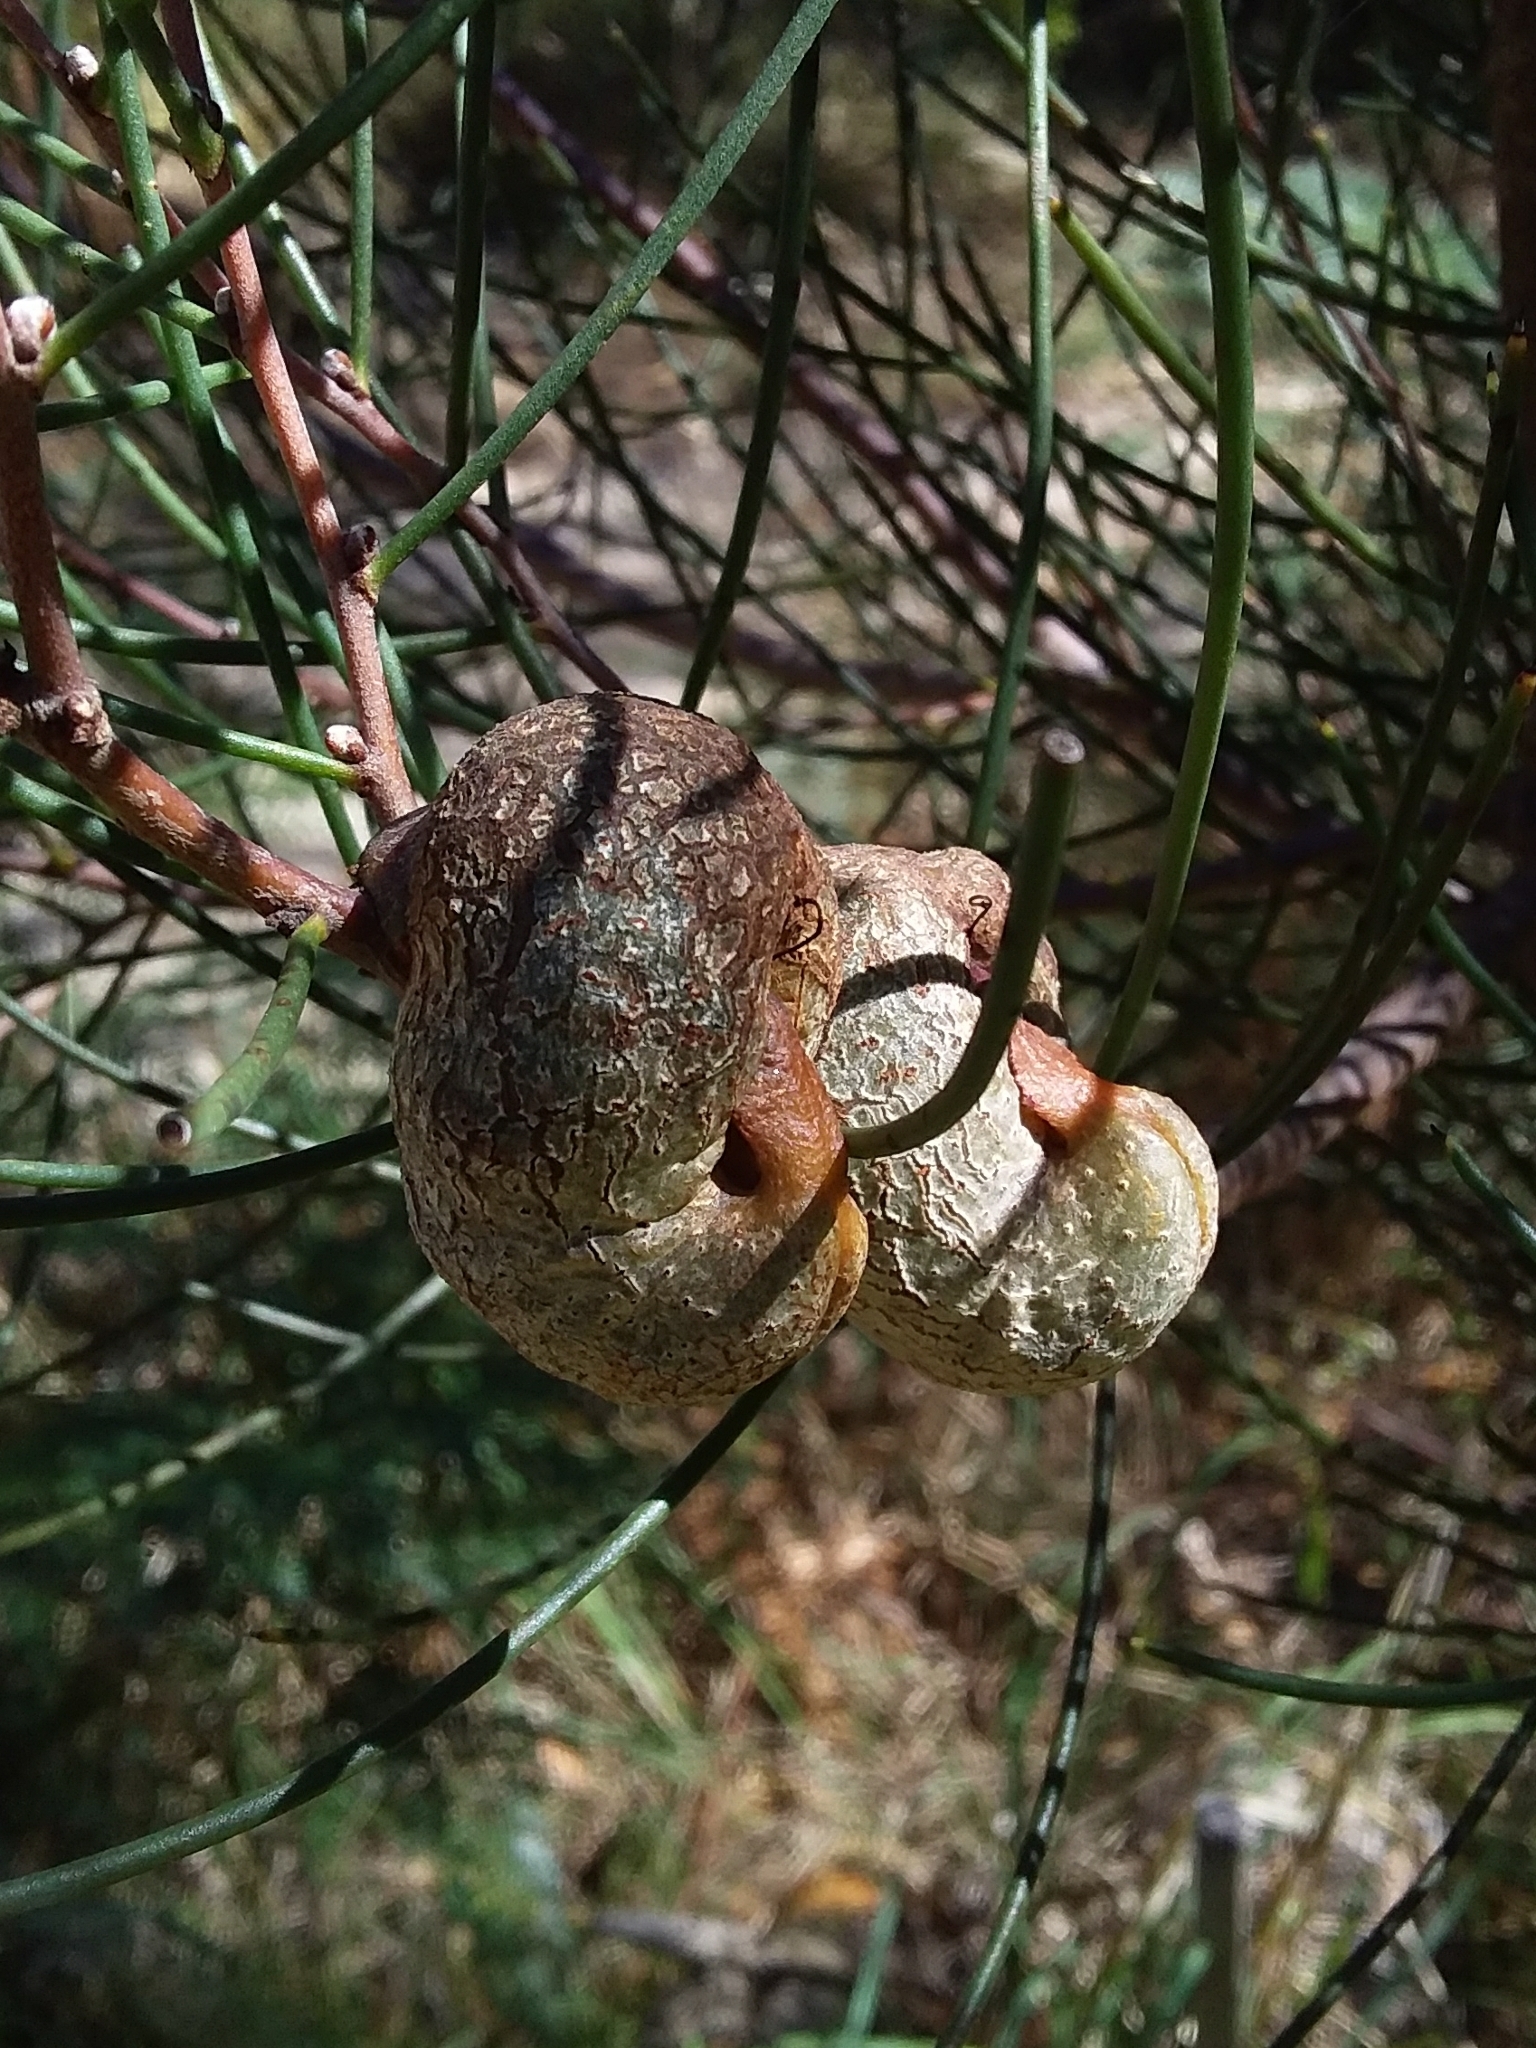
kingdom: Plantae
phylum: Tracheophyta
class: Magnoliopsida
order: Proteales
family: Proteaceae
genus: Hakea
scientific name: Hakea rostrata
